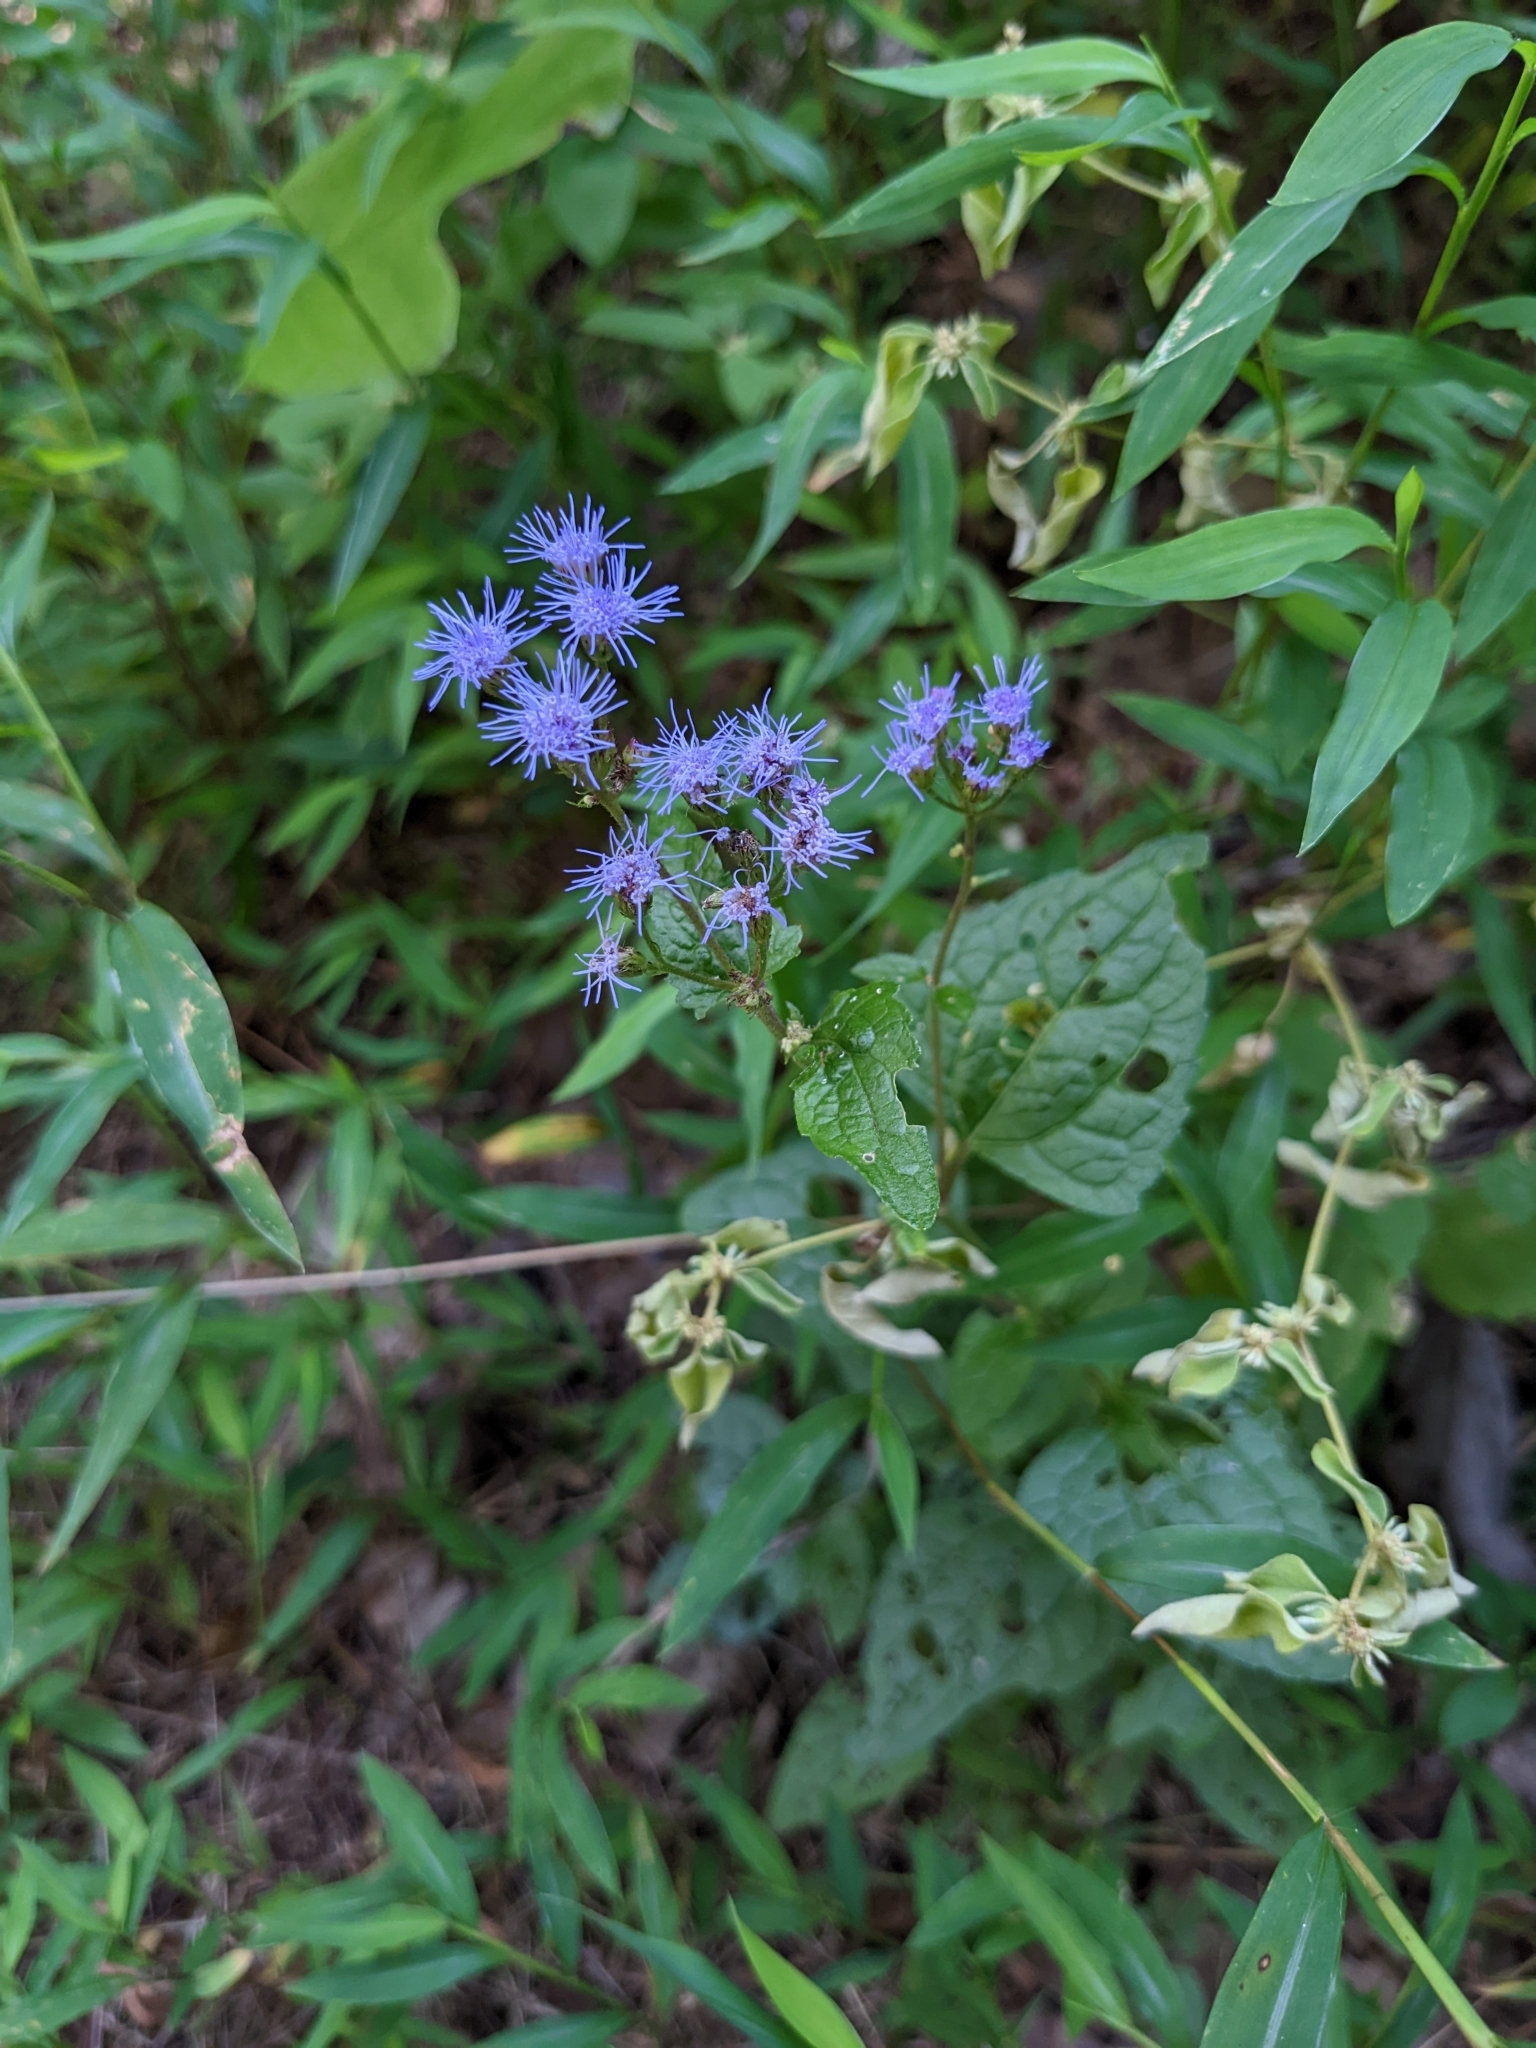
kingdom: Plantae
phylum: Tracheophyta
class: Magnoliopsida
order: Asterales
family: Asteraceae
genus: Conoclinium
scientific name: Conoclinium coelestinum
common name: Blue mistflower
